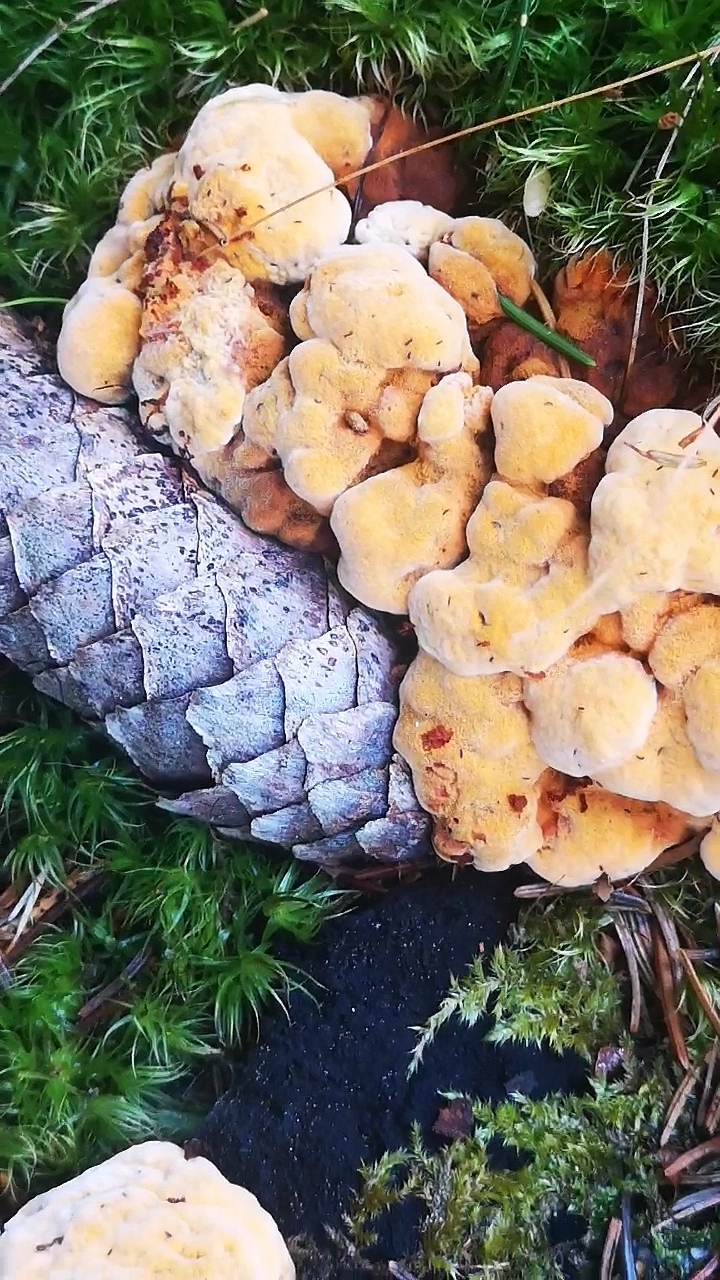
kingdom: Fungi
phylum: Basidiomycota
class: Agaricomycetes
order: Gloeophyllales
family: Gloeophyllaceae
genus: Gloeophyllum
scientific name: Gloeophyllum odoratum
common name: Anise mazegill
